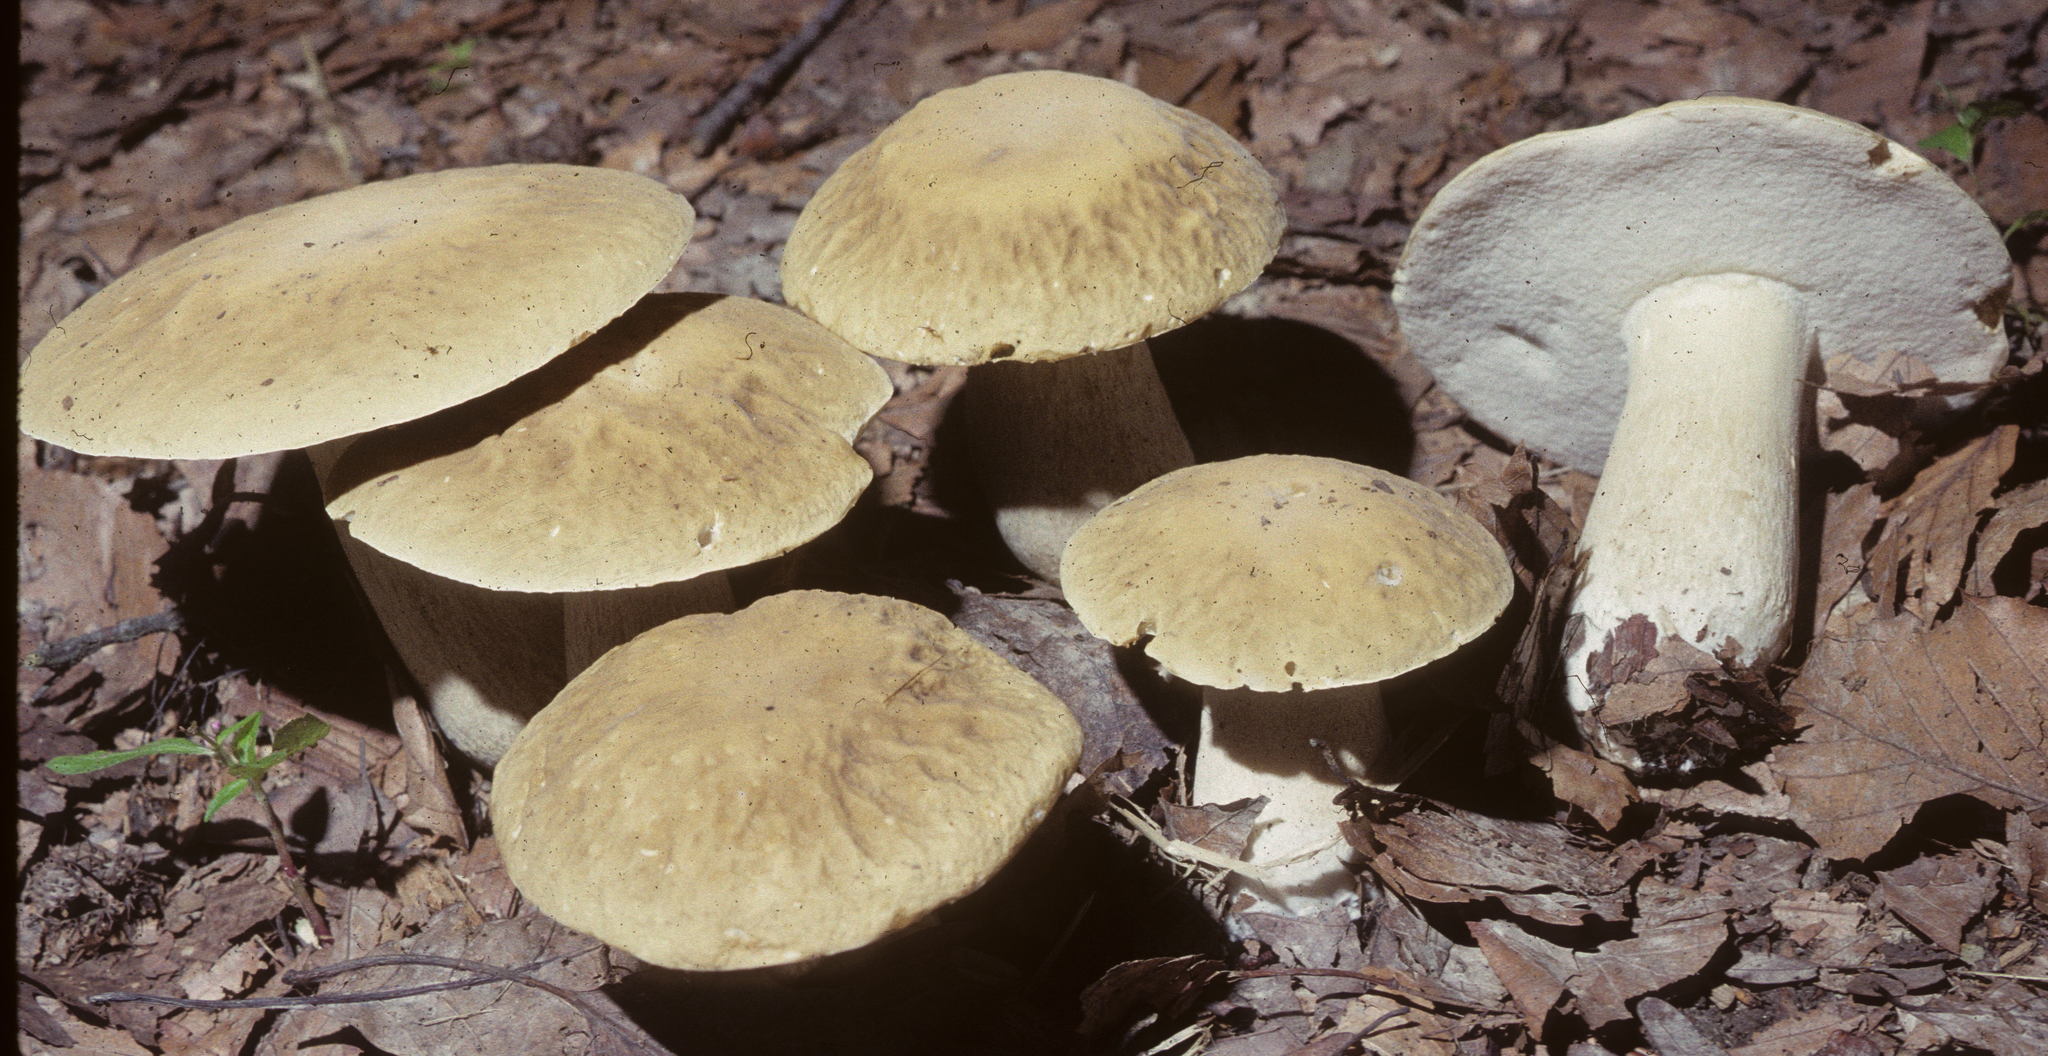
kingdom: Fungi
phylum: Basidiomycota
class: Agaricomycetes
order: Boletales
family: Boletaceae
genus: Boletus
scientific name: Boletus nobilis
